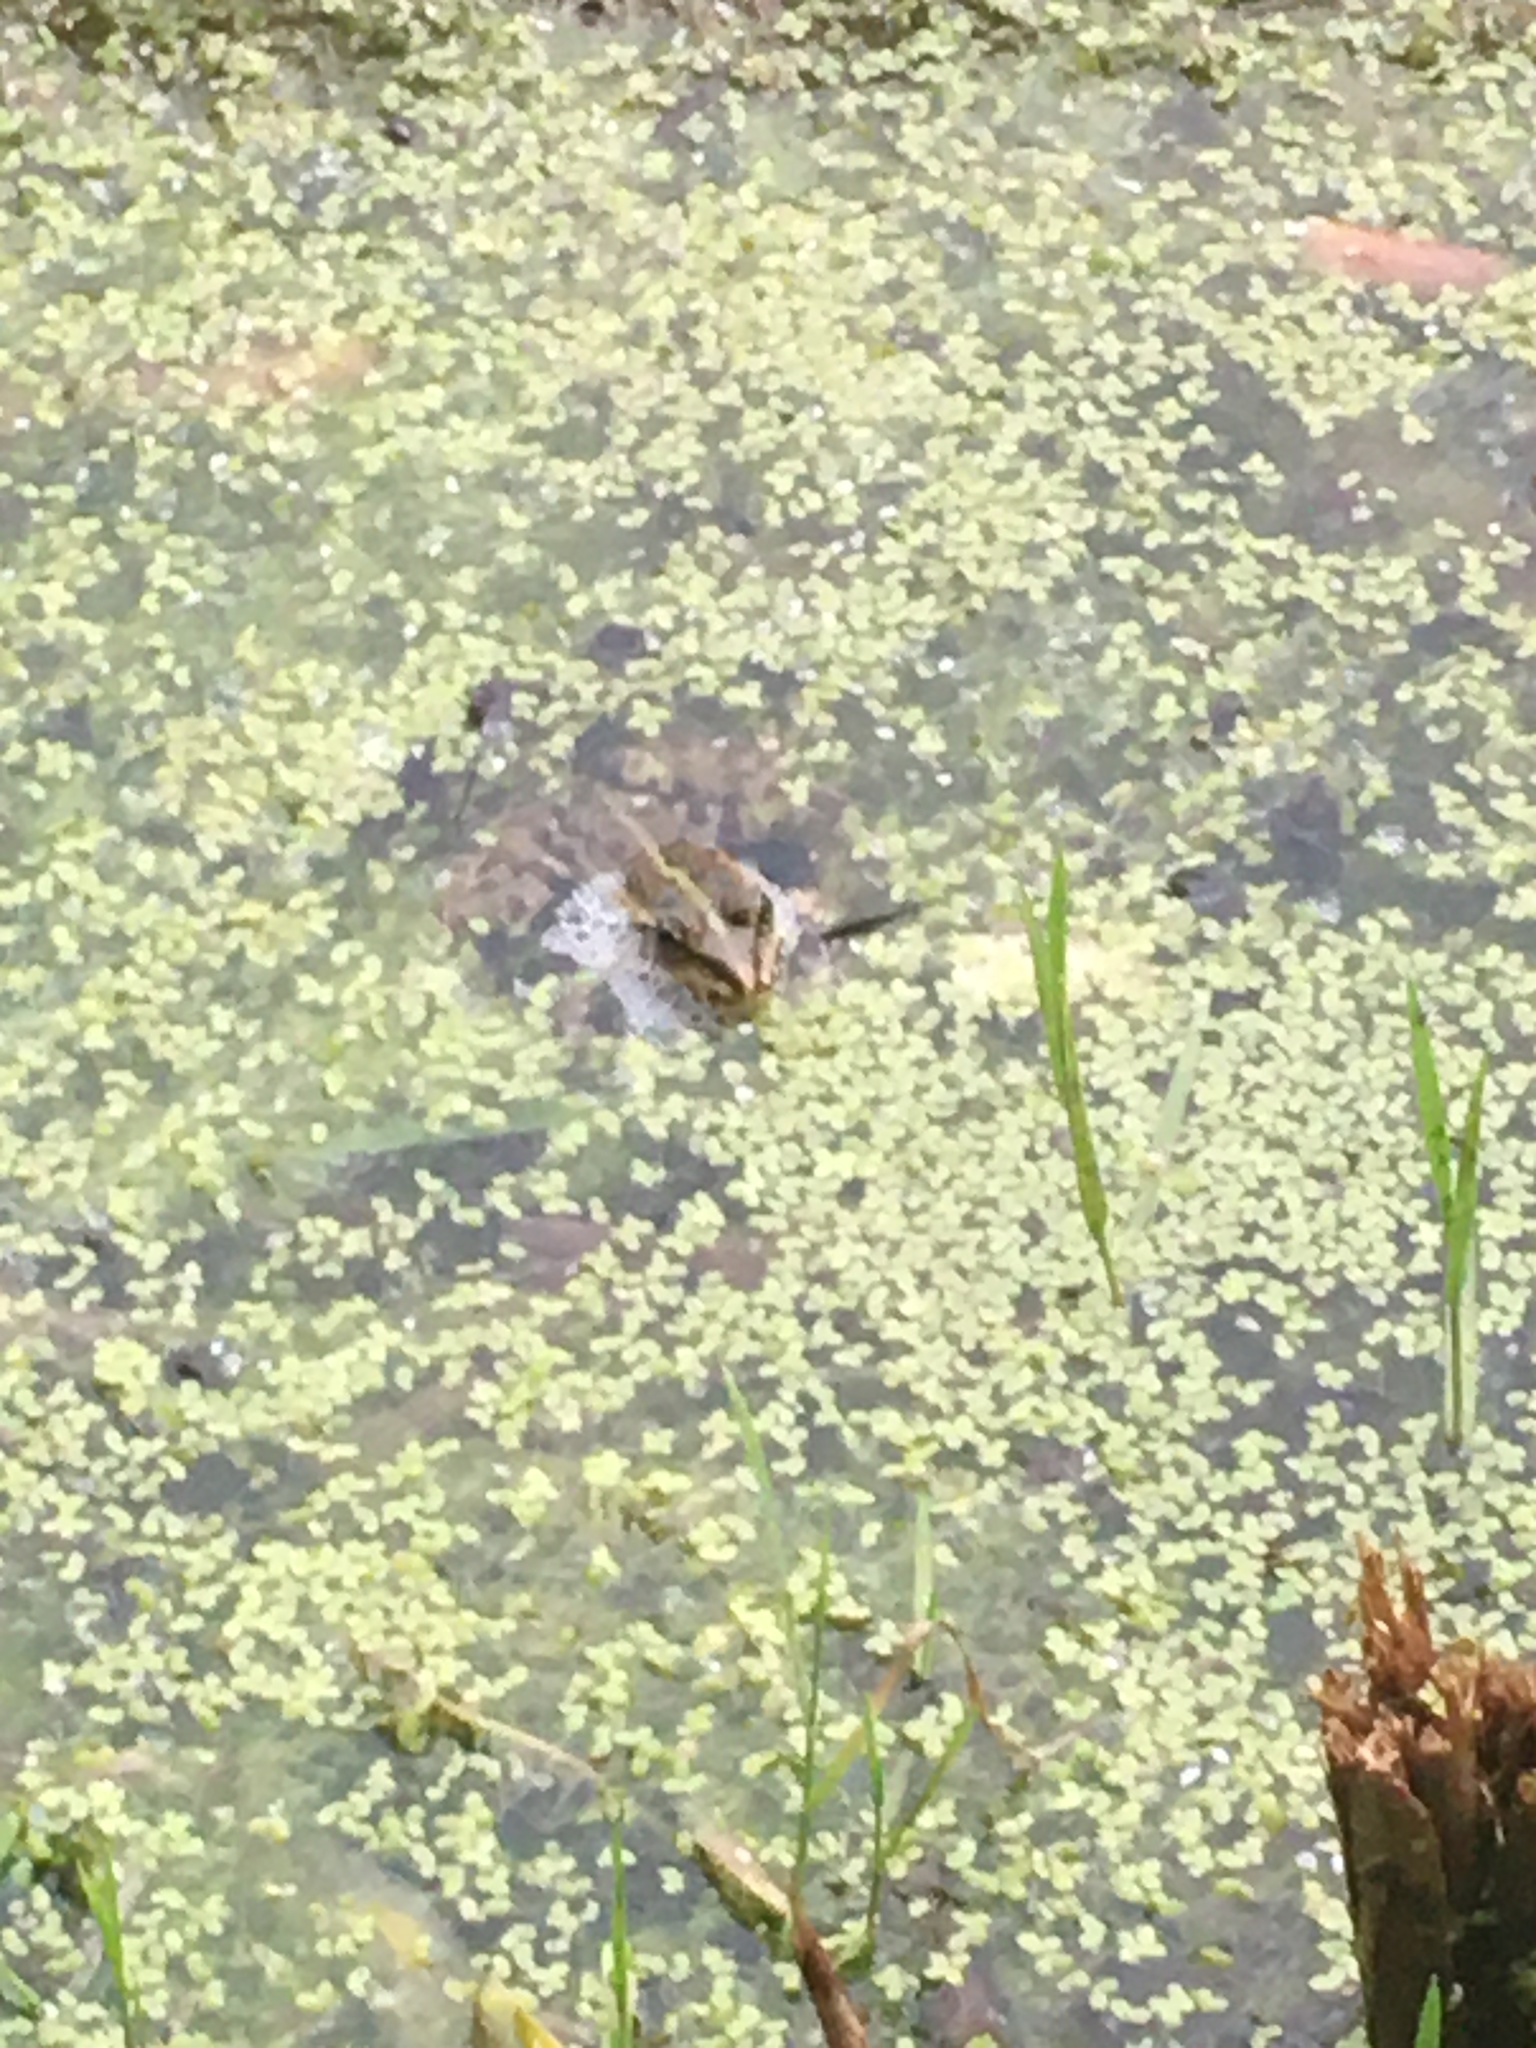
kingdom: Animalia
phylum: Chordata
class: Amphibia
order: Anura
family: Ranidae
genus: Pelophylax
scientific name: Pelophylax
